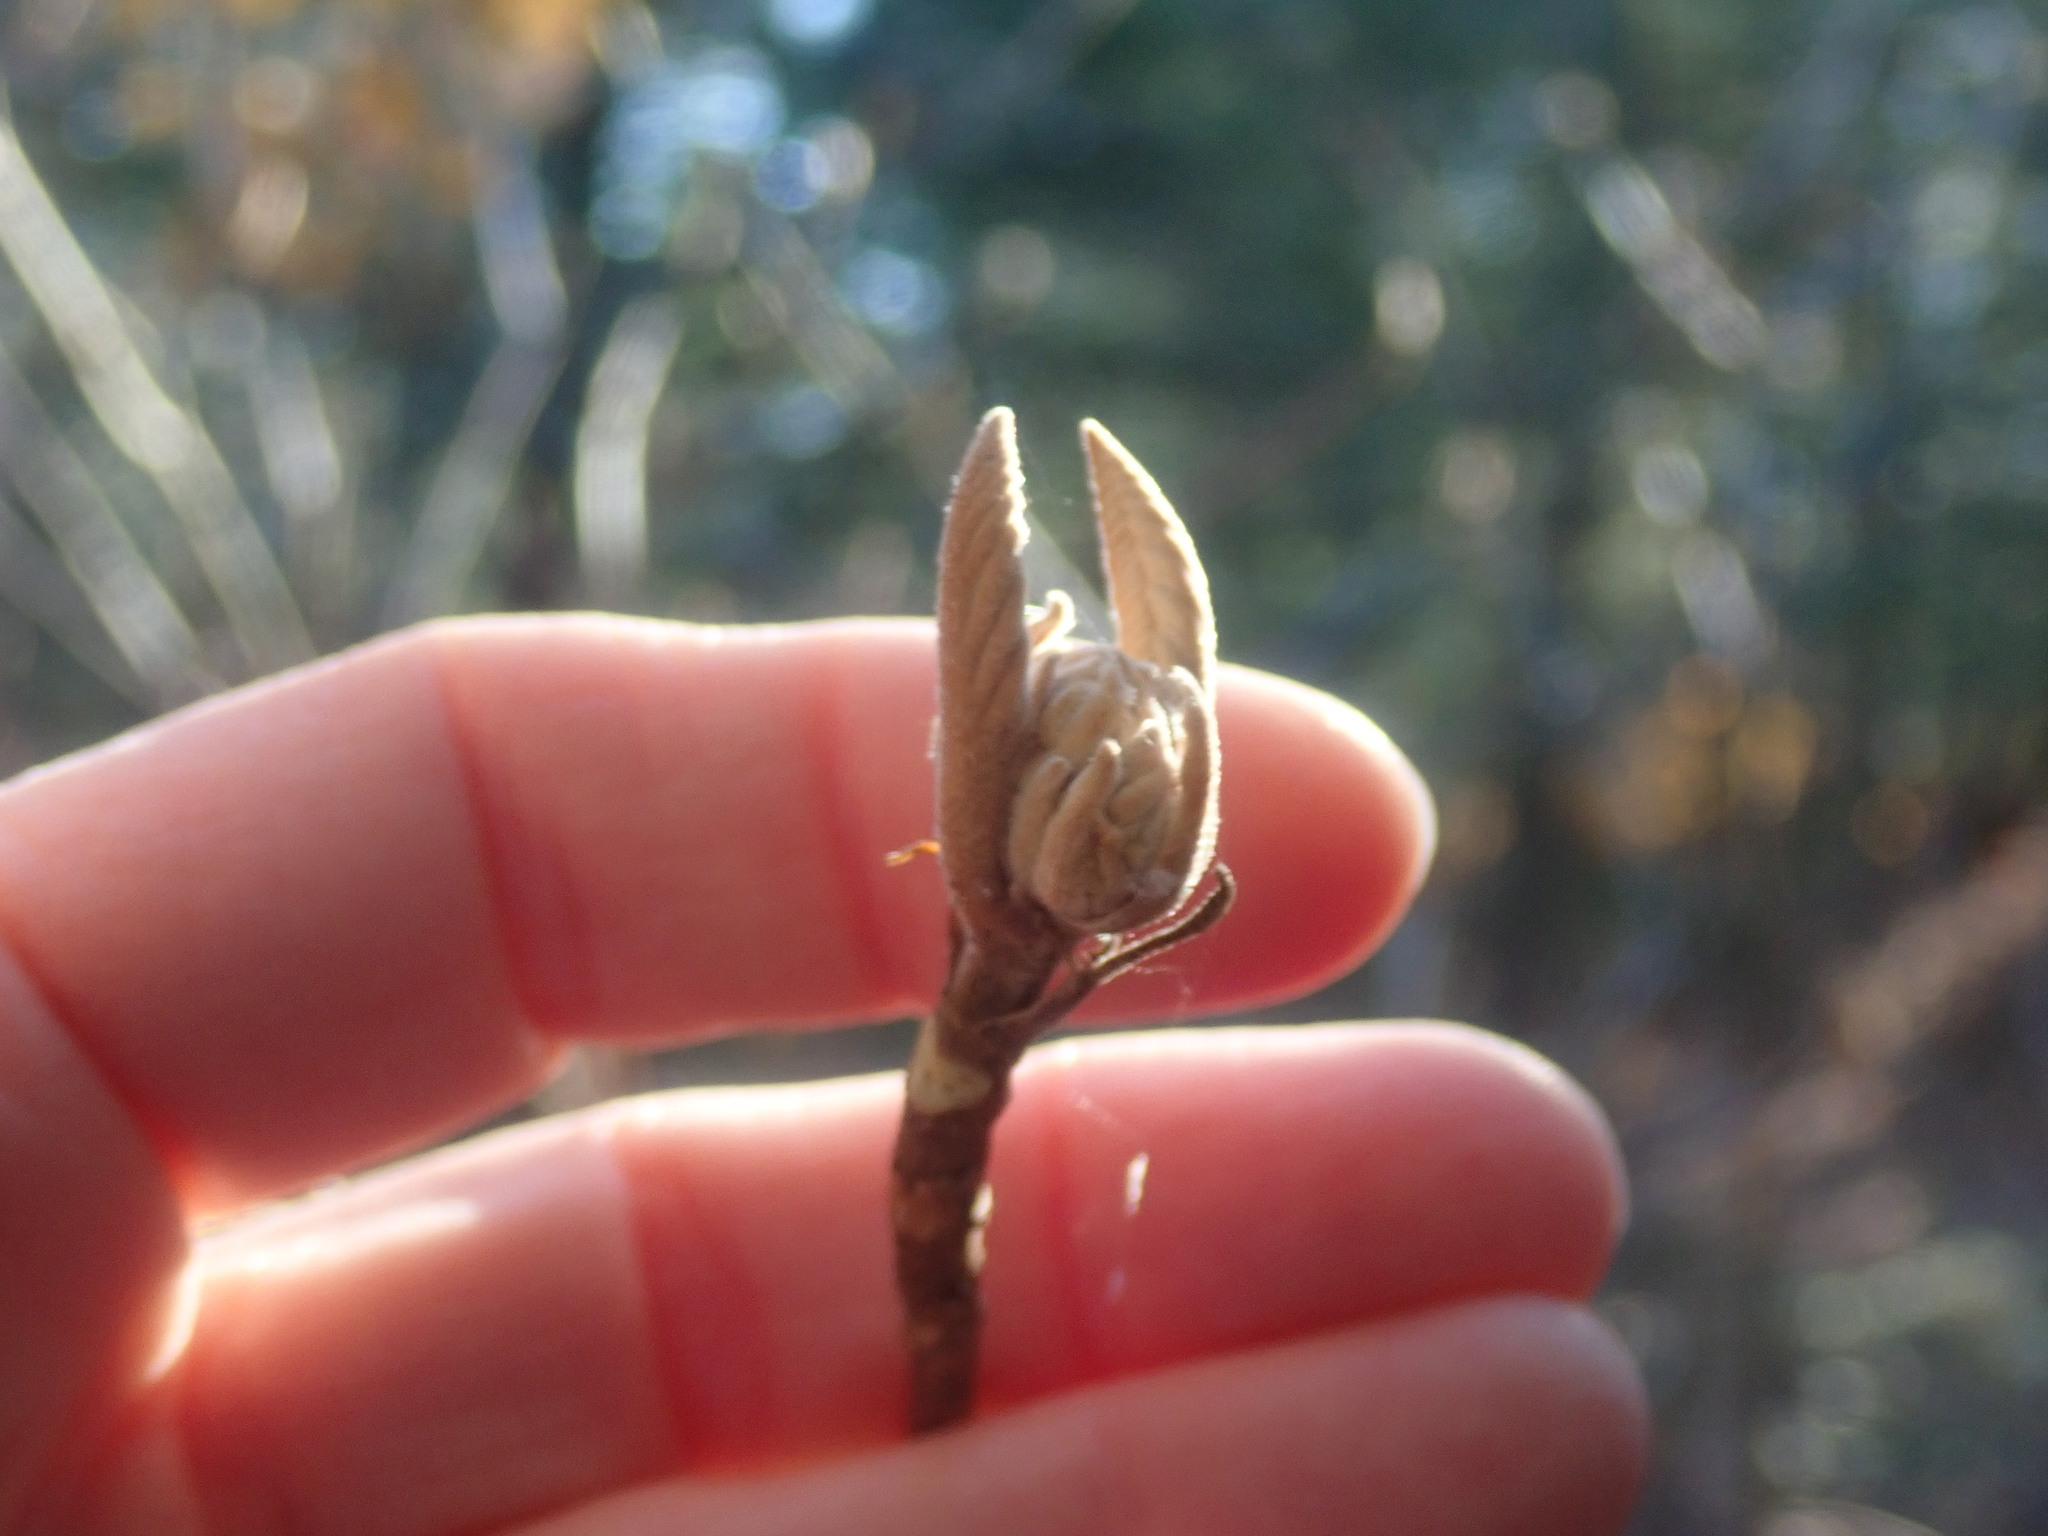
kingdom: Plantae
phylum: Tracheophyta
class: Magnoliopsida
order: Dipsacales
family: Viburnaceae
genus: Viburnum
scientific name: Viburnum lantanoides
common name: Hobblebush
